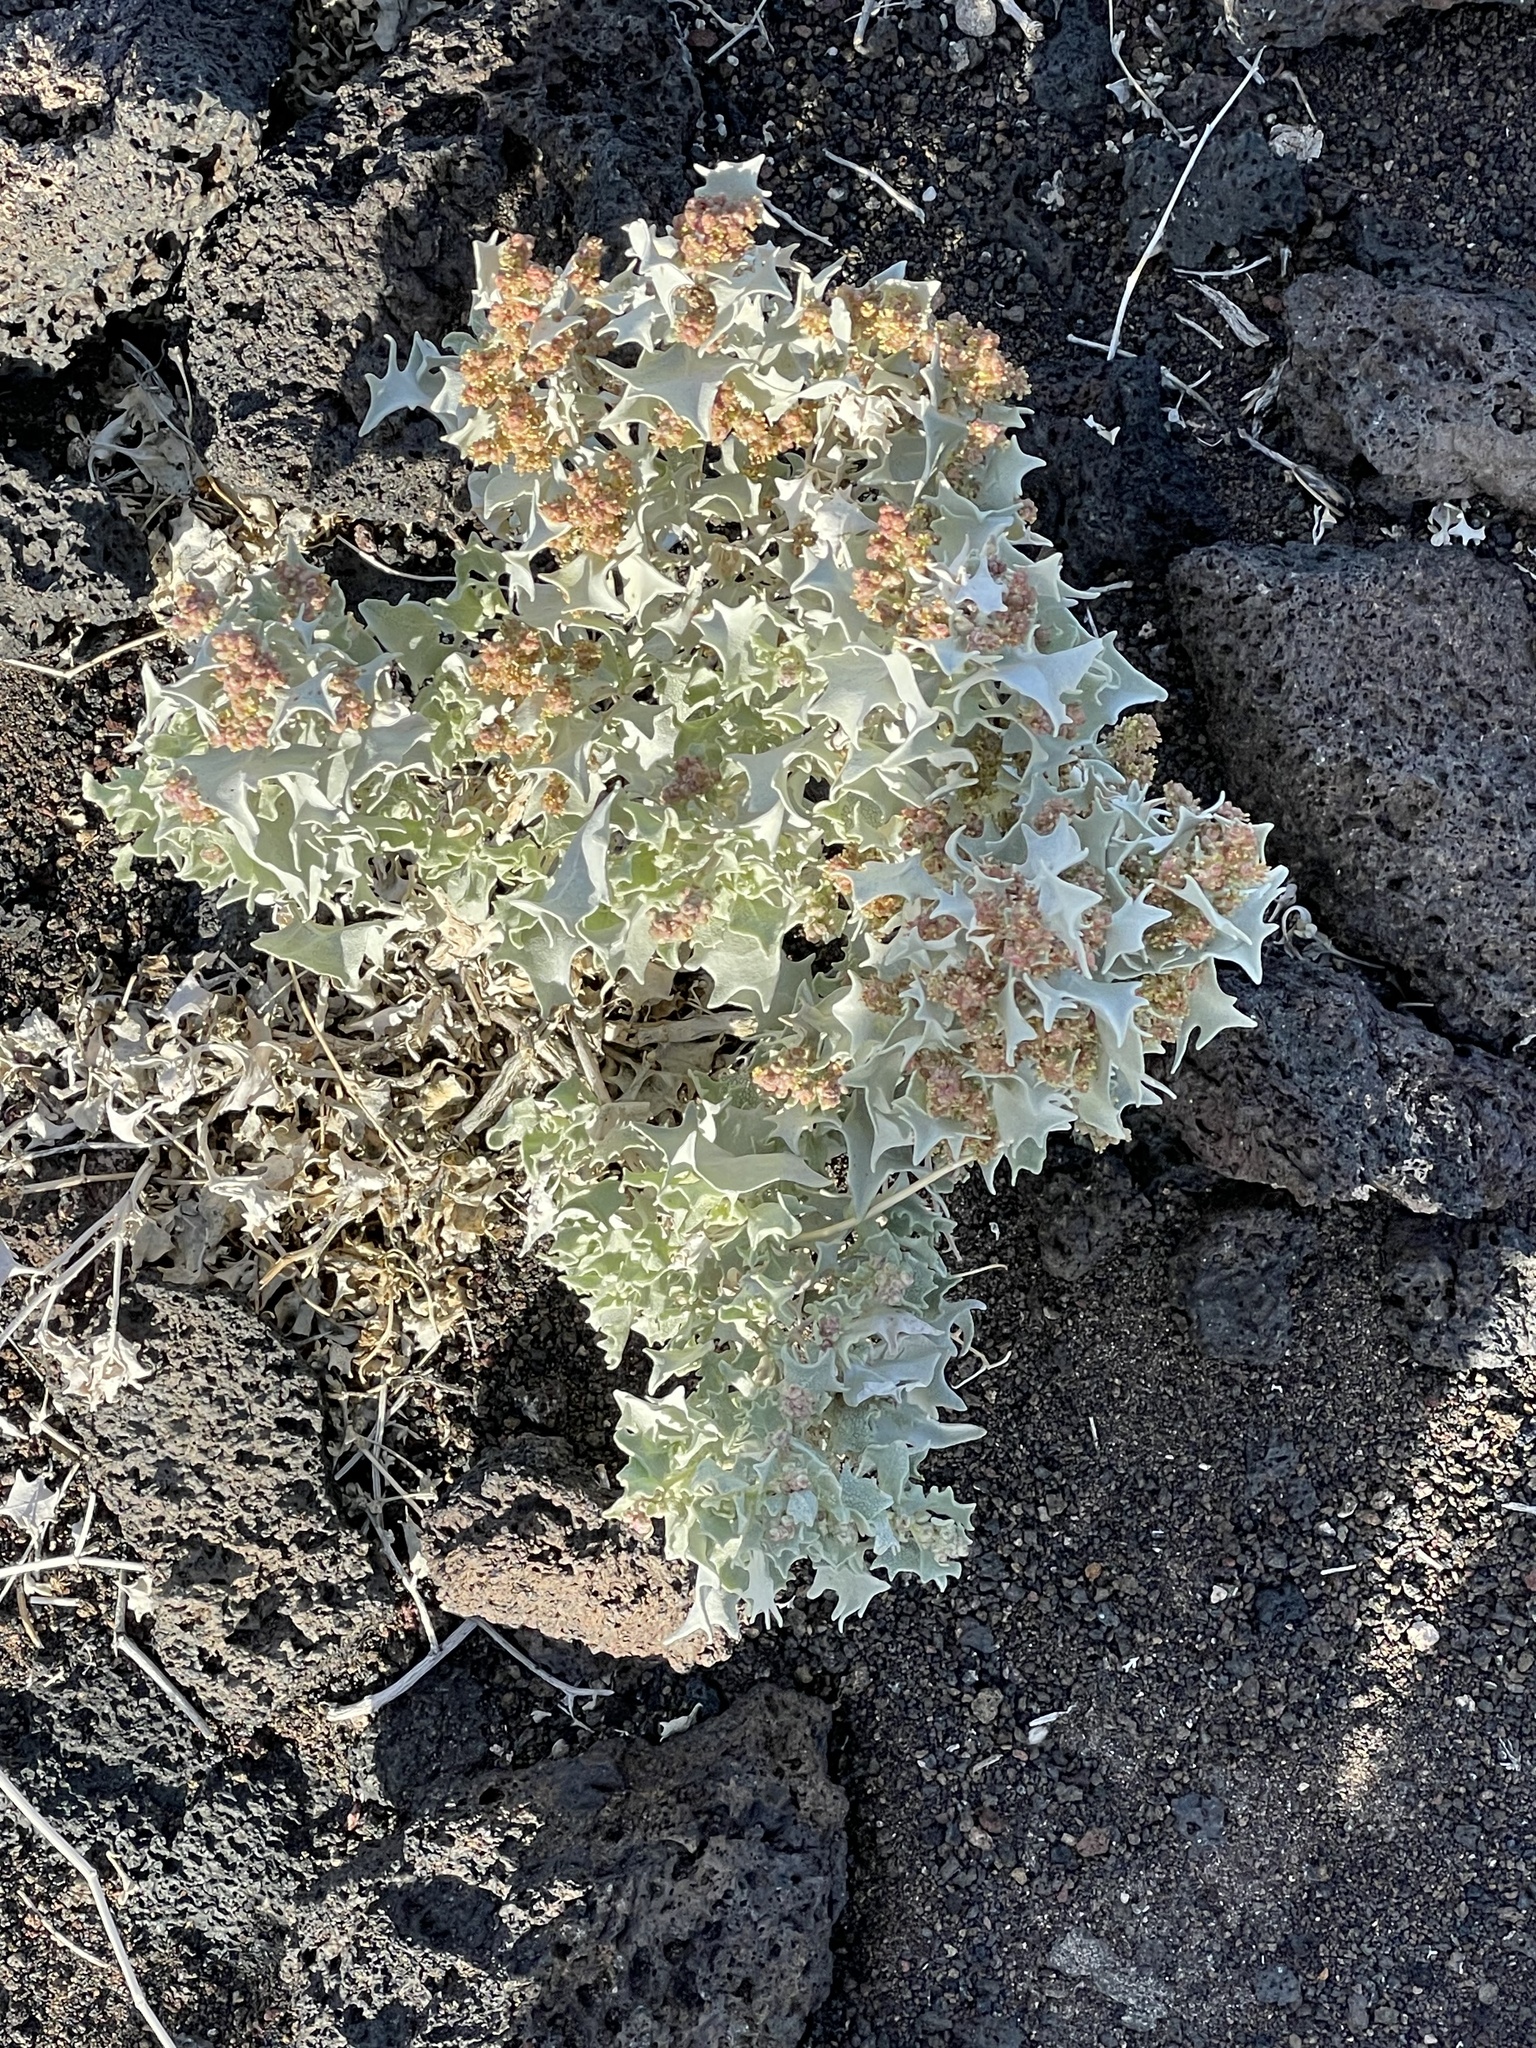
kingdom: Plantae
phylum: Tracheophyta
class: Magnoliopsida
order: Caryophyllales
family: Amaranthaceae
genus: Atriplex
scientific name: Atriplex hymenelytra
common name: Desert-holly
